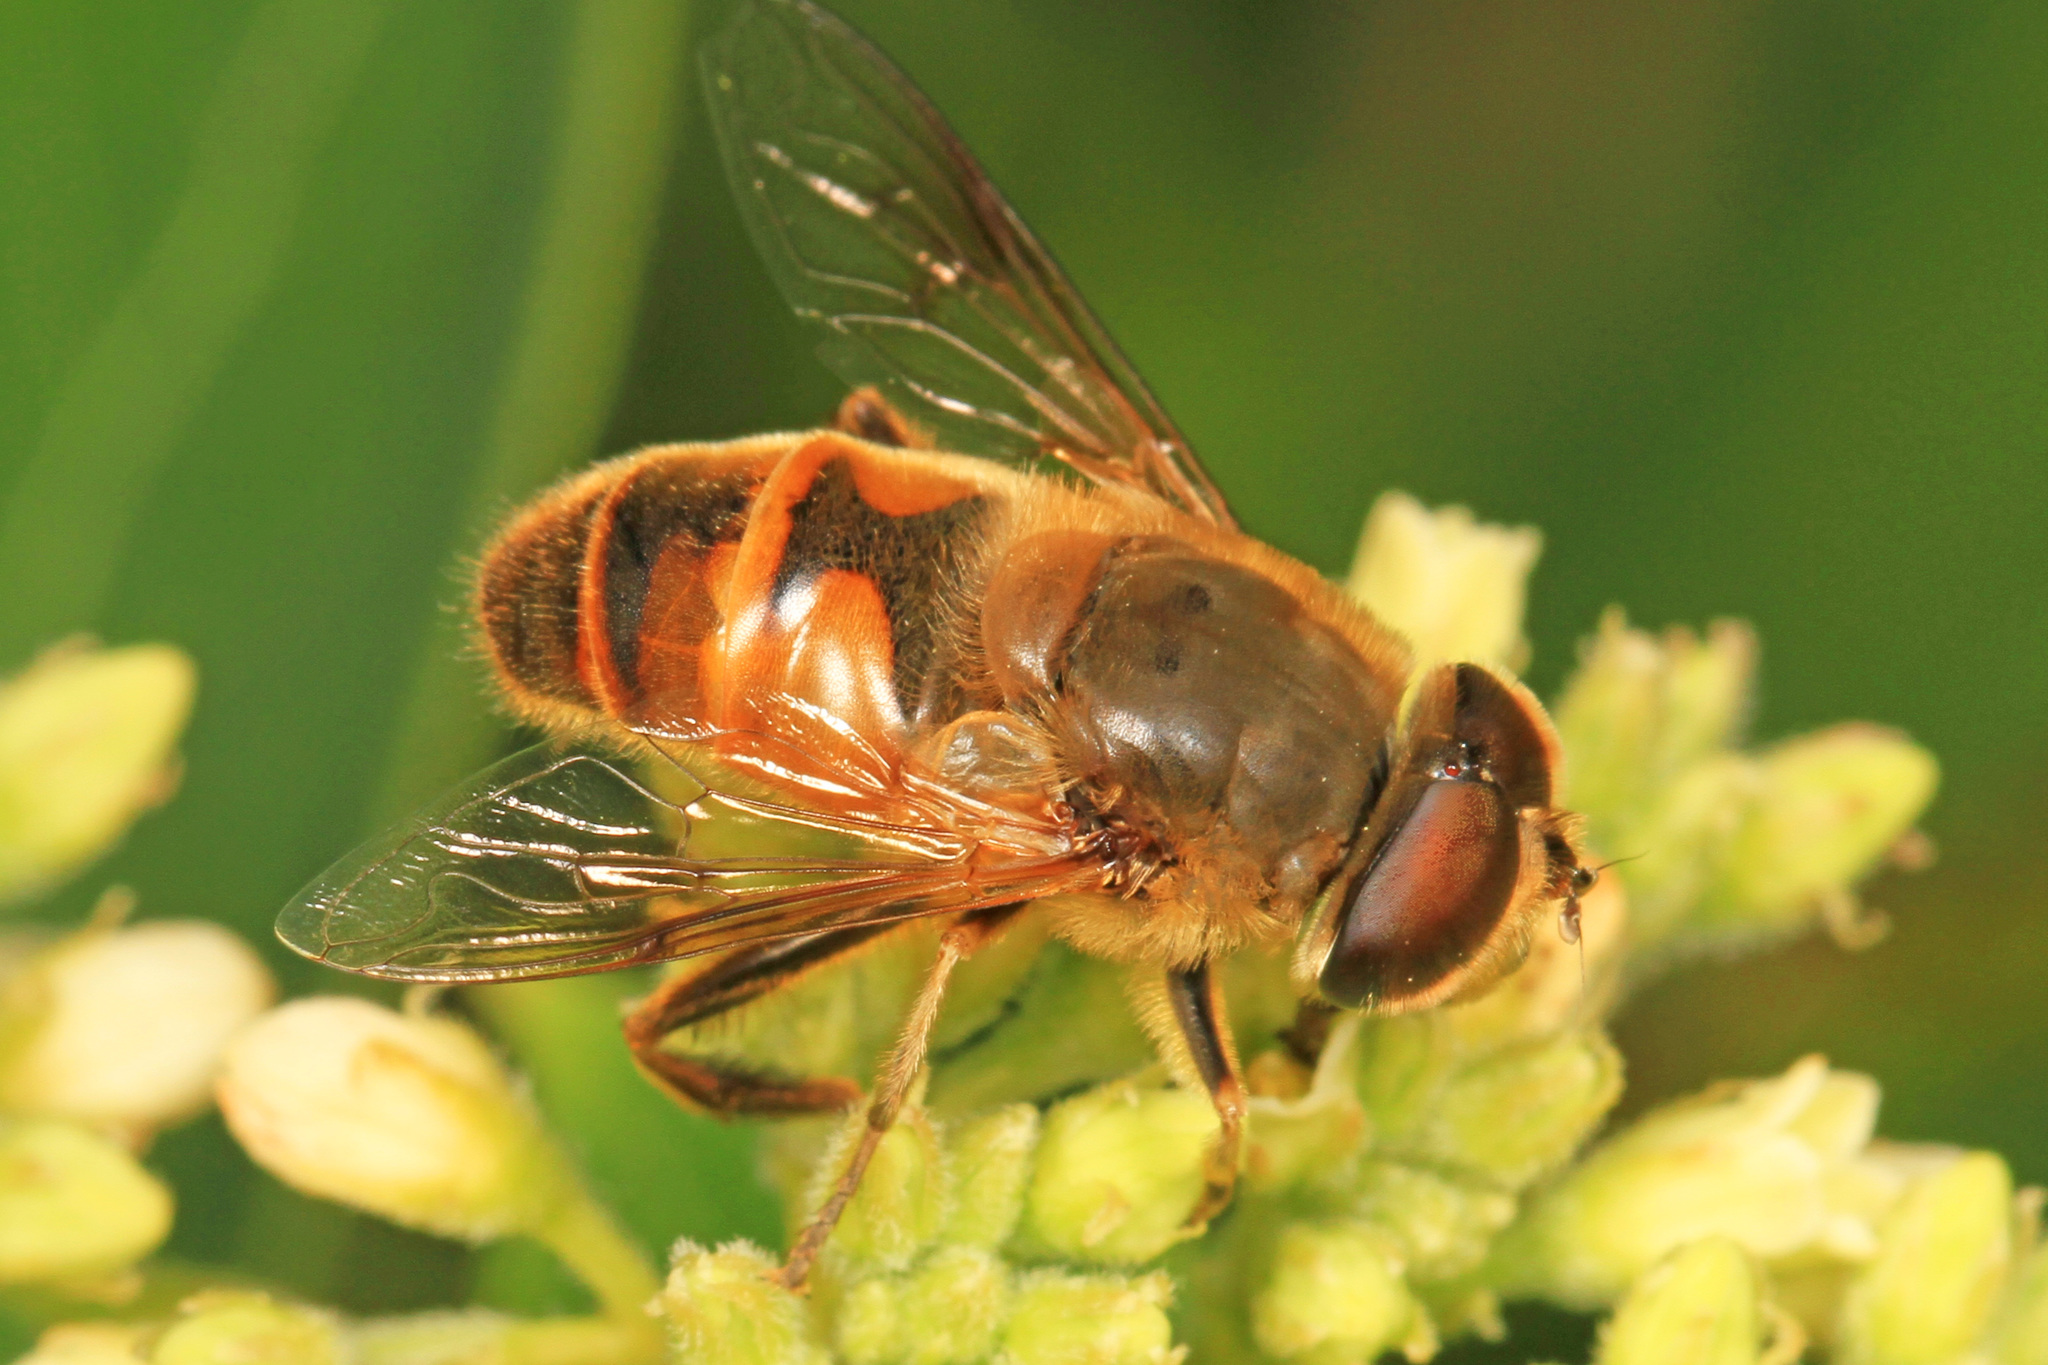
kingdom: Animalia
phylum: Arthropoda
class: Insecta
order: Diptera
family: Syrphidae
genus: Eristalis
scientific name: Eristalis tenax
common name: Drone fly
